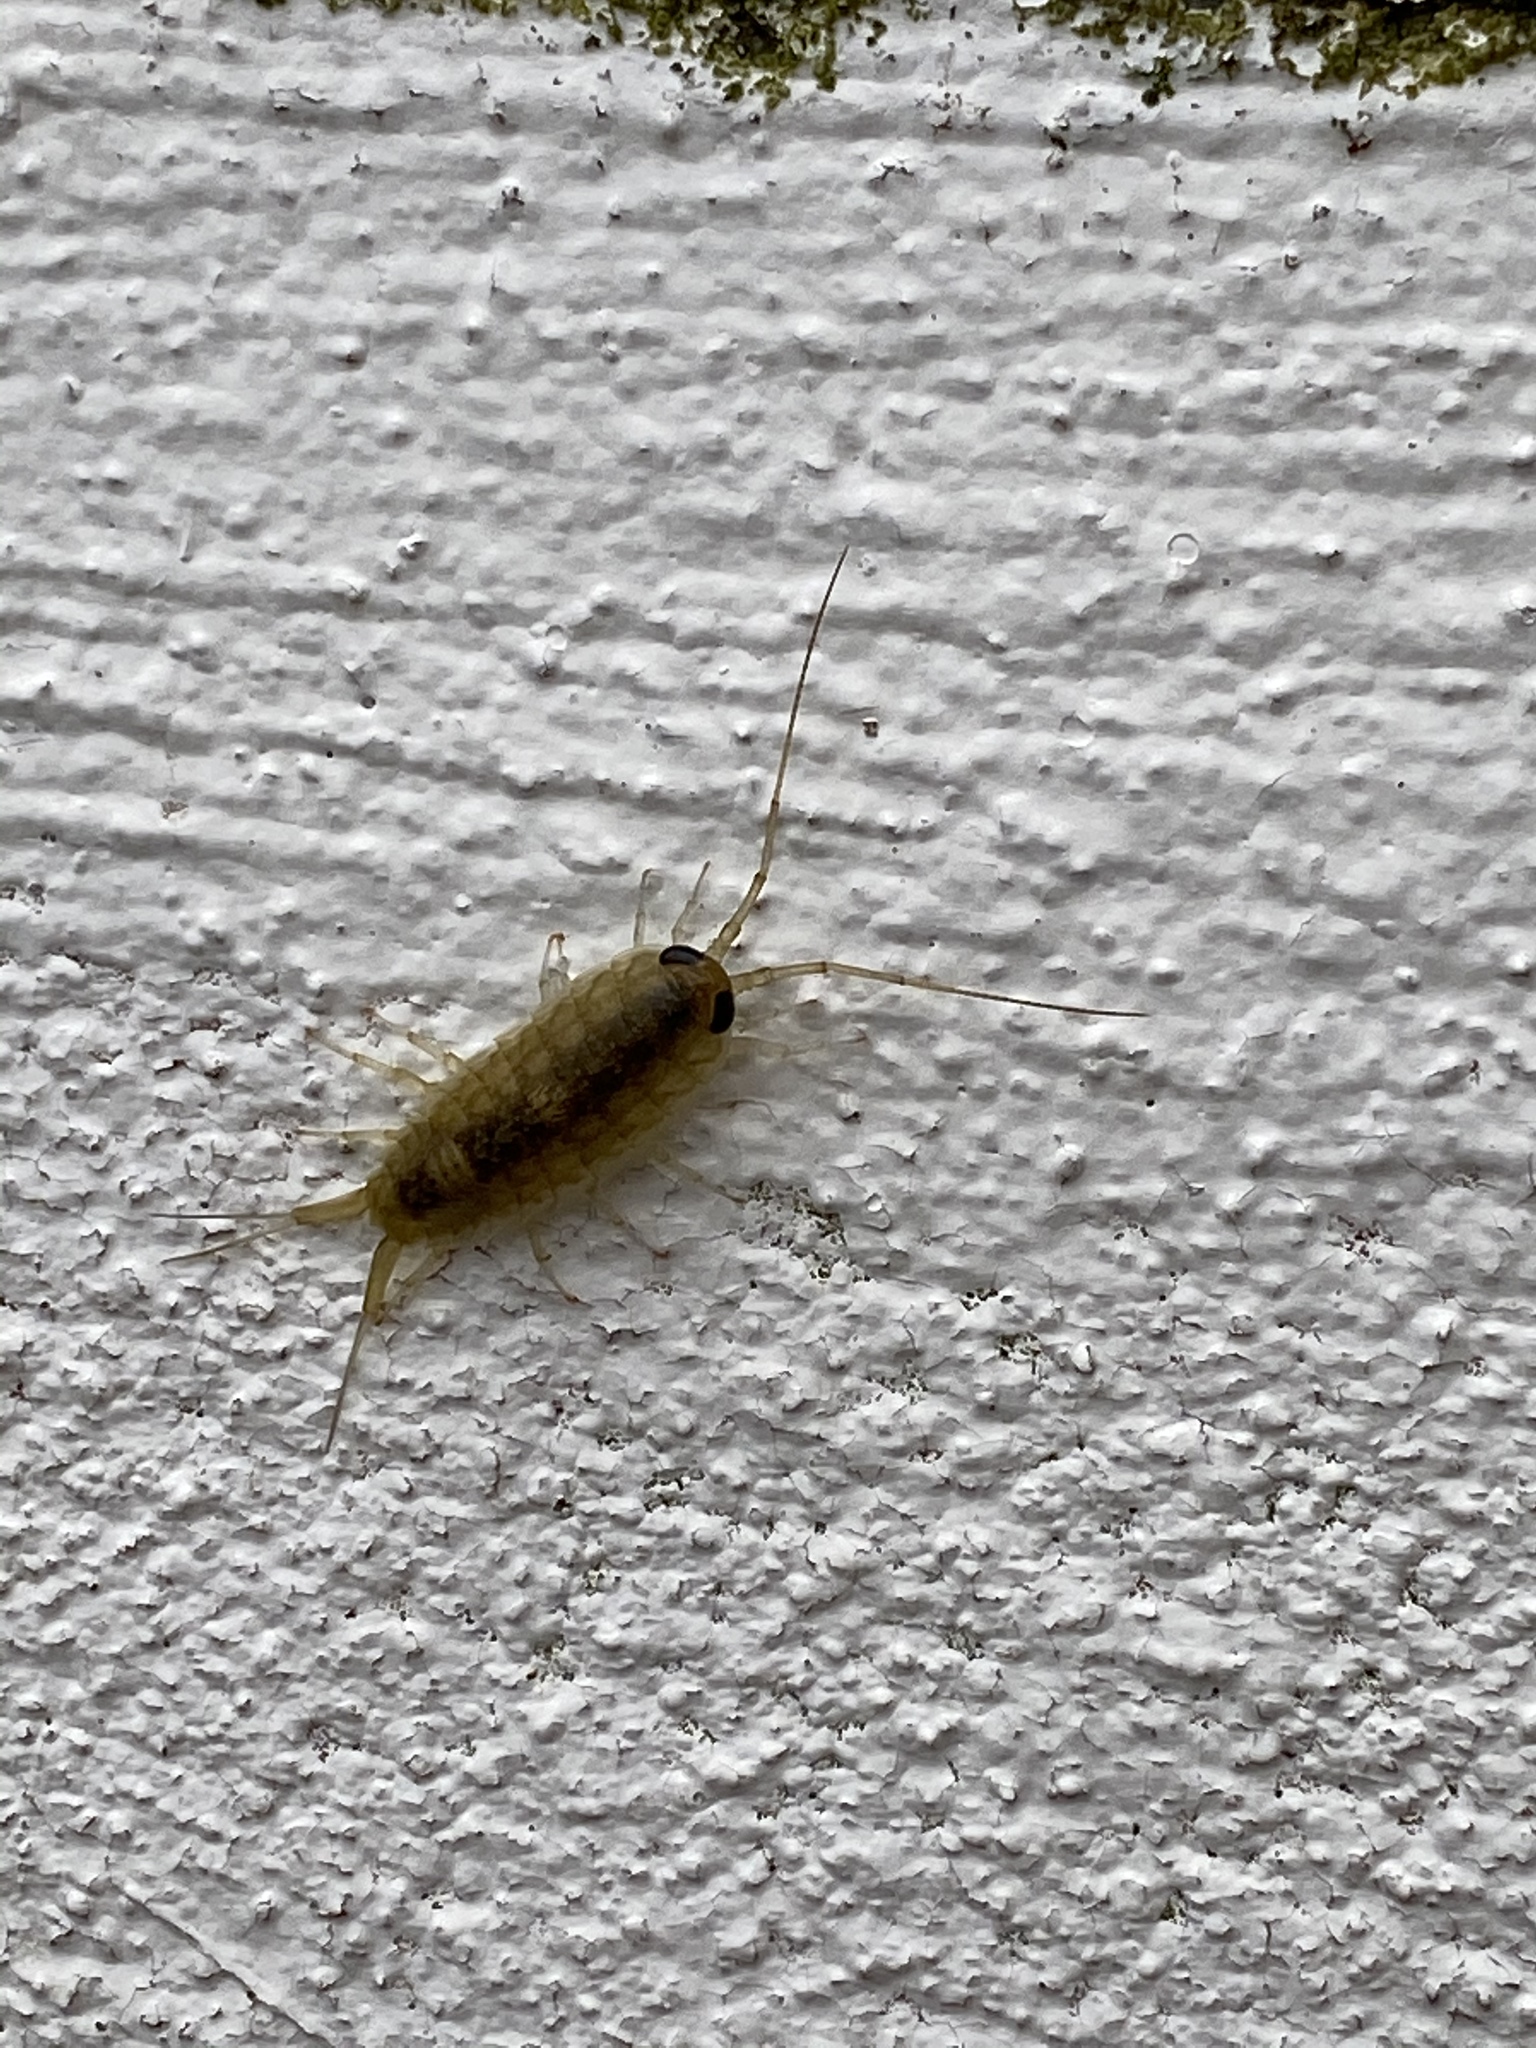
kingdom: Animalia
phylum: Arthropoda
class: Malacostraca
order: Isopoda
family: Ligiidae
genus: Ligia
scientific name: Ligia exotica
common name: Wharf roach
